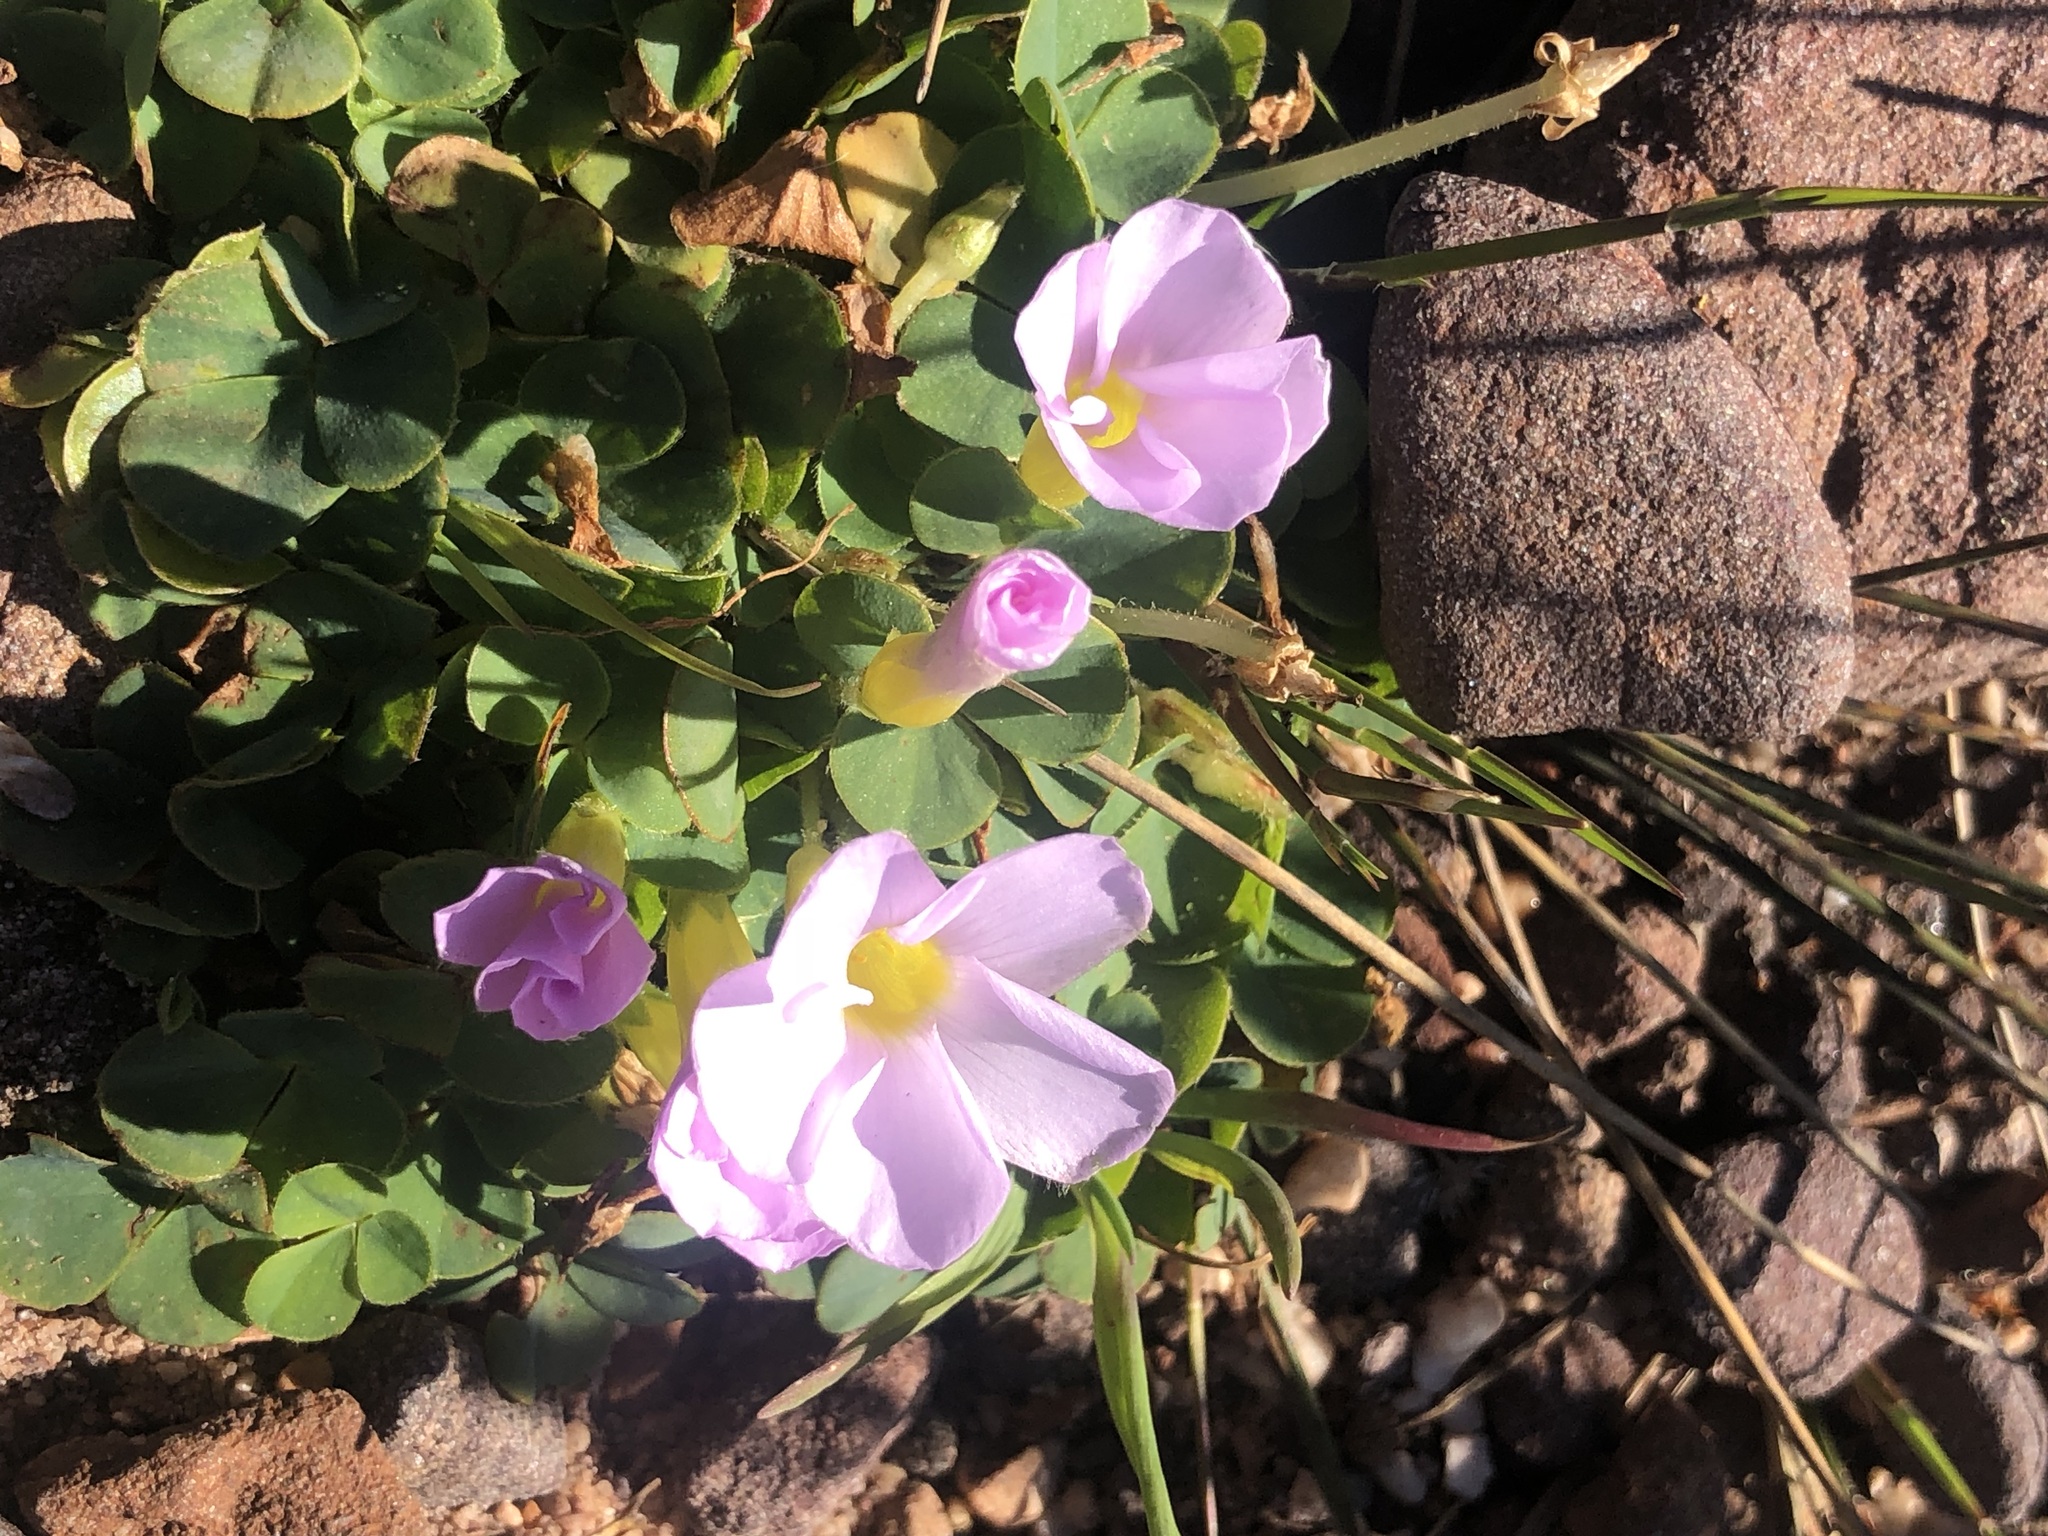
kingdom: Plantae
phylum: Tracheophyta
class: Magnoliopsida
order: Oxalidales
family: Oxalidaceae
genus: Oxalis
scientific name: Oxalis purpurea
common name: Purple woodsorrel
